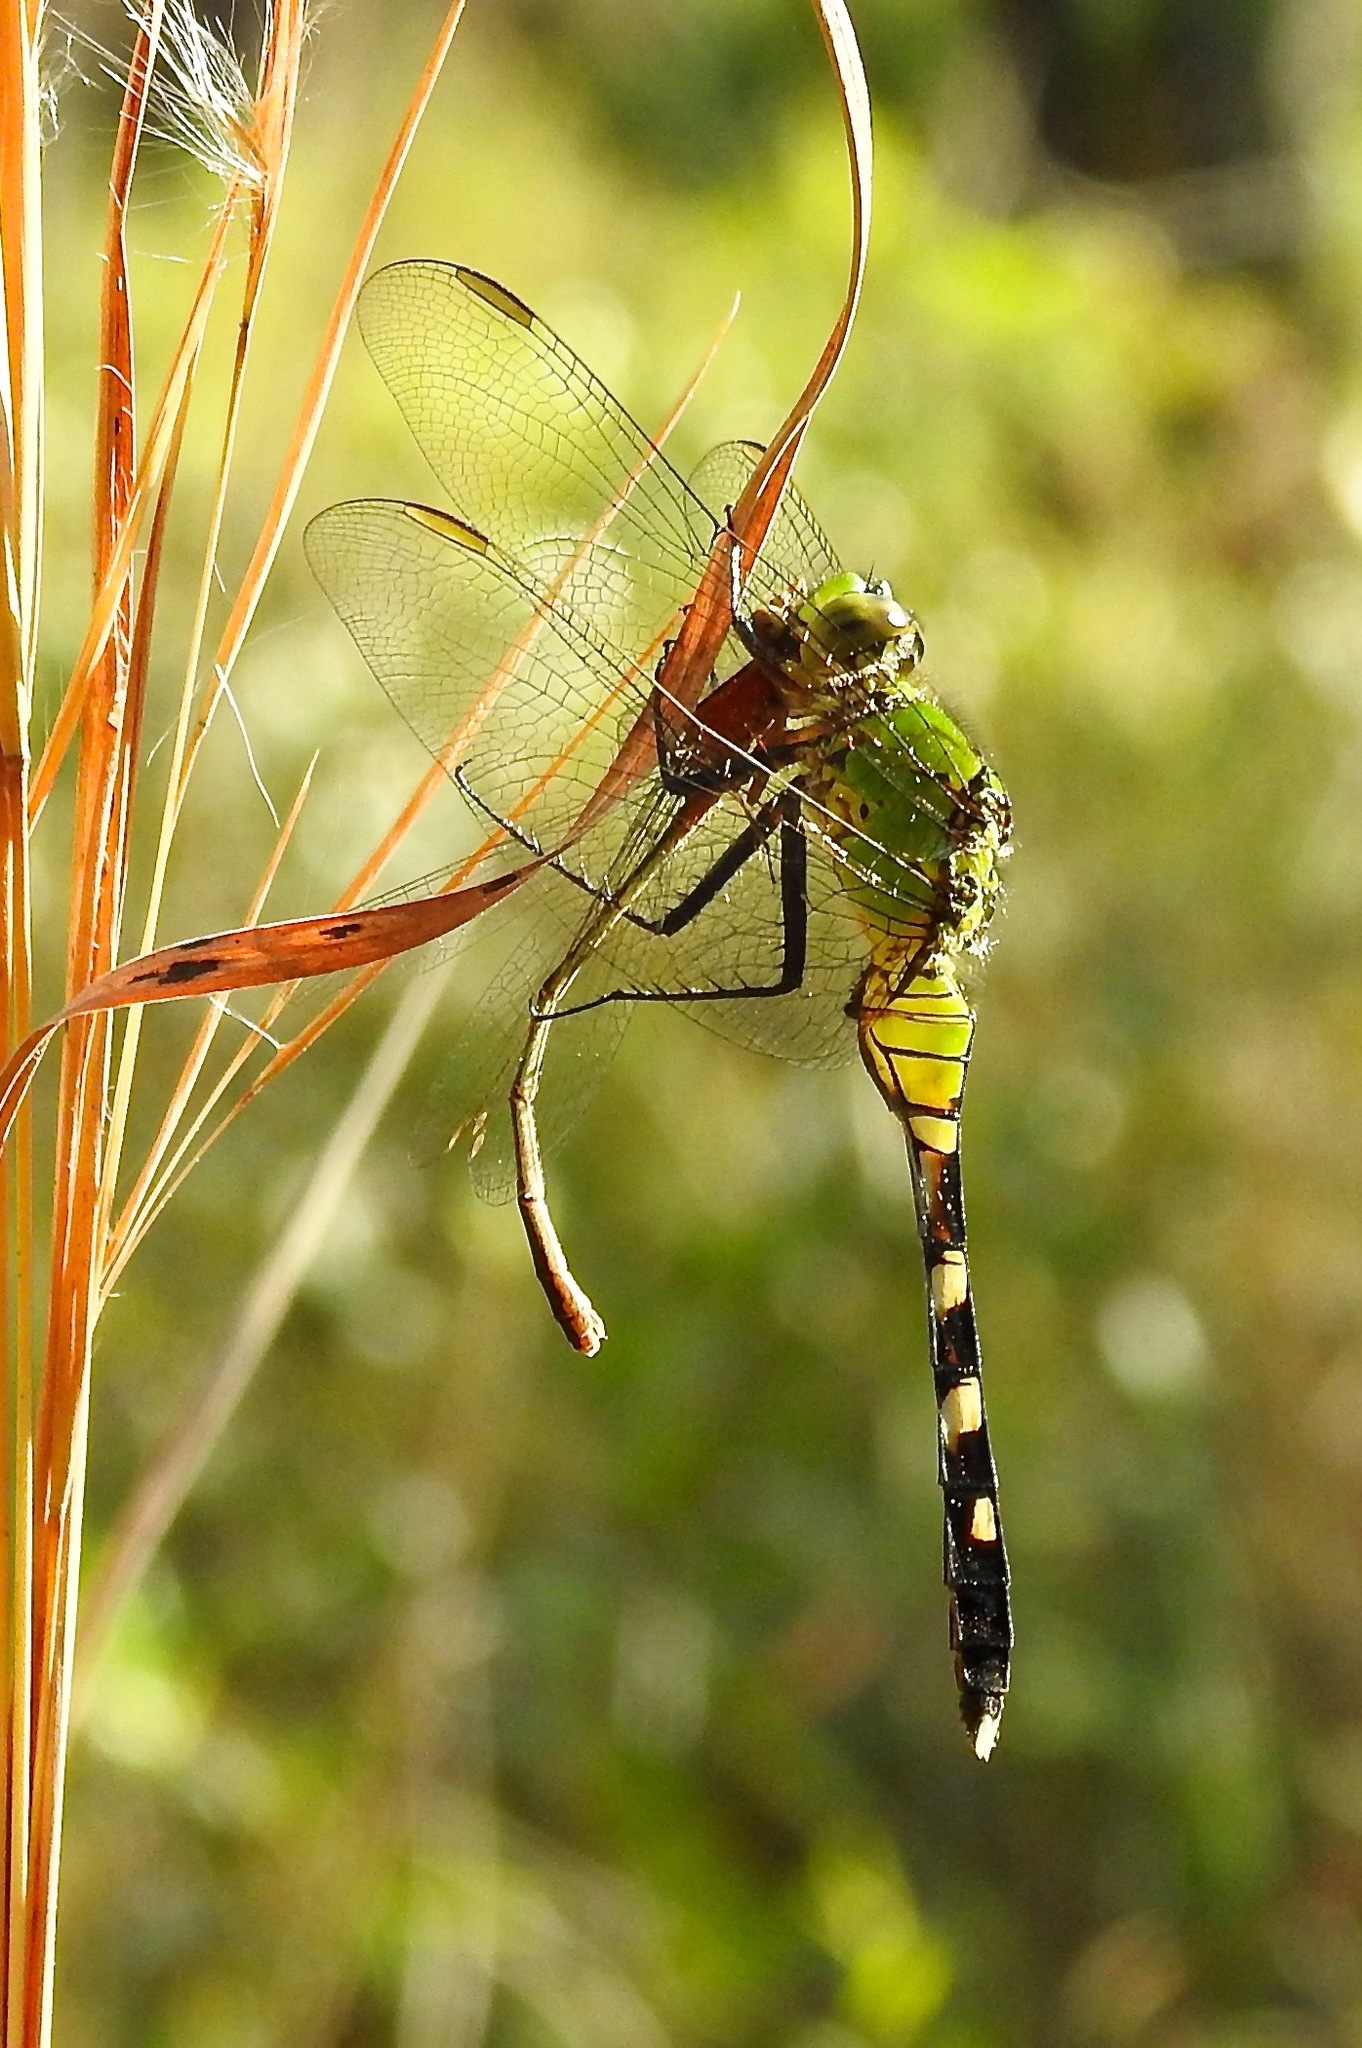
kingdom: Animalia
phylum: Arthropoda
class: Insecta
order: Odonata
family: Libellulidae
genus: Erythemis
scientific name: Erythemis simplicicollis
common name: Eastern pondhawk
